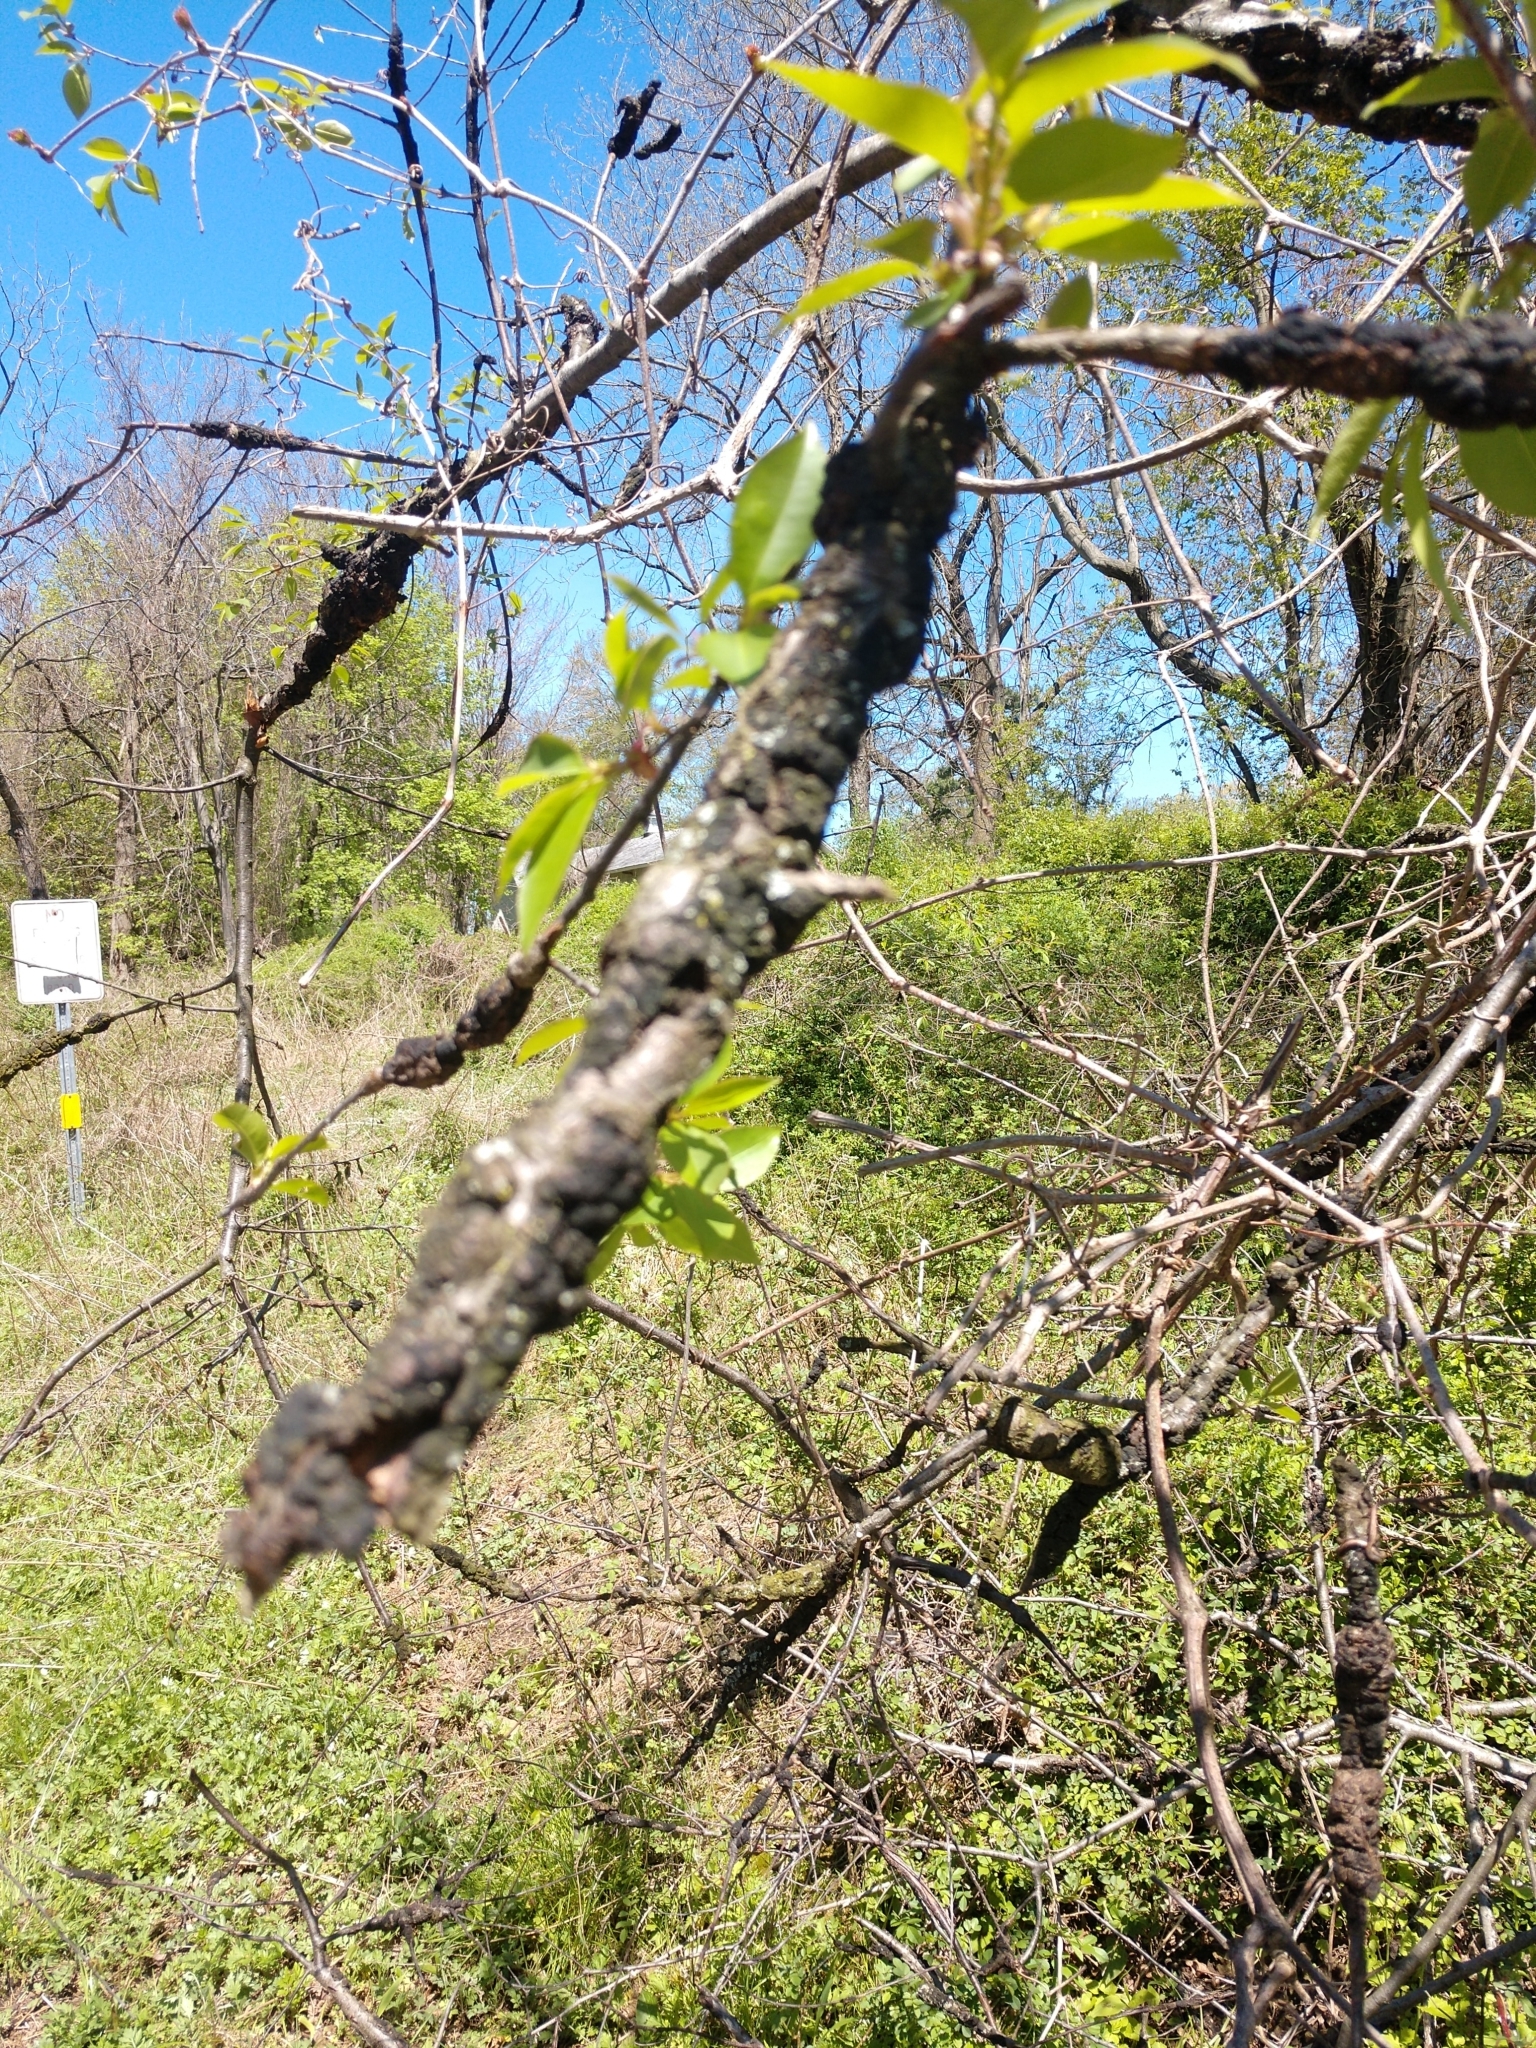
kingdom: Fungi
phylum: Ascomycota
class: Dothideomycetes
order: Venturiales
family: Venturiaceae
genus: Apiosporina
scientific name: Apiosporina morbosa
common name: Black knot
